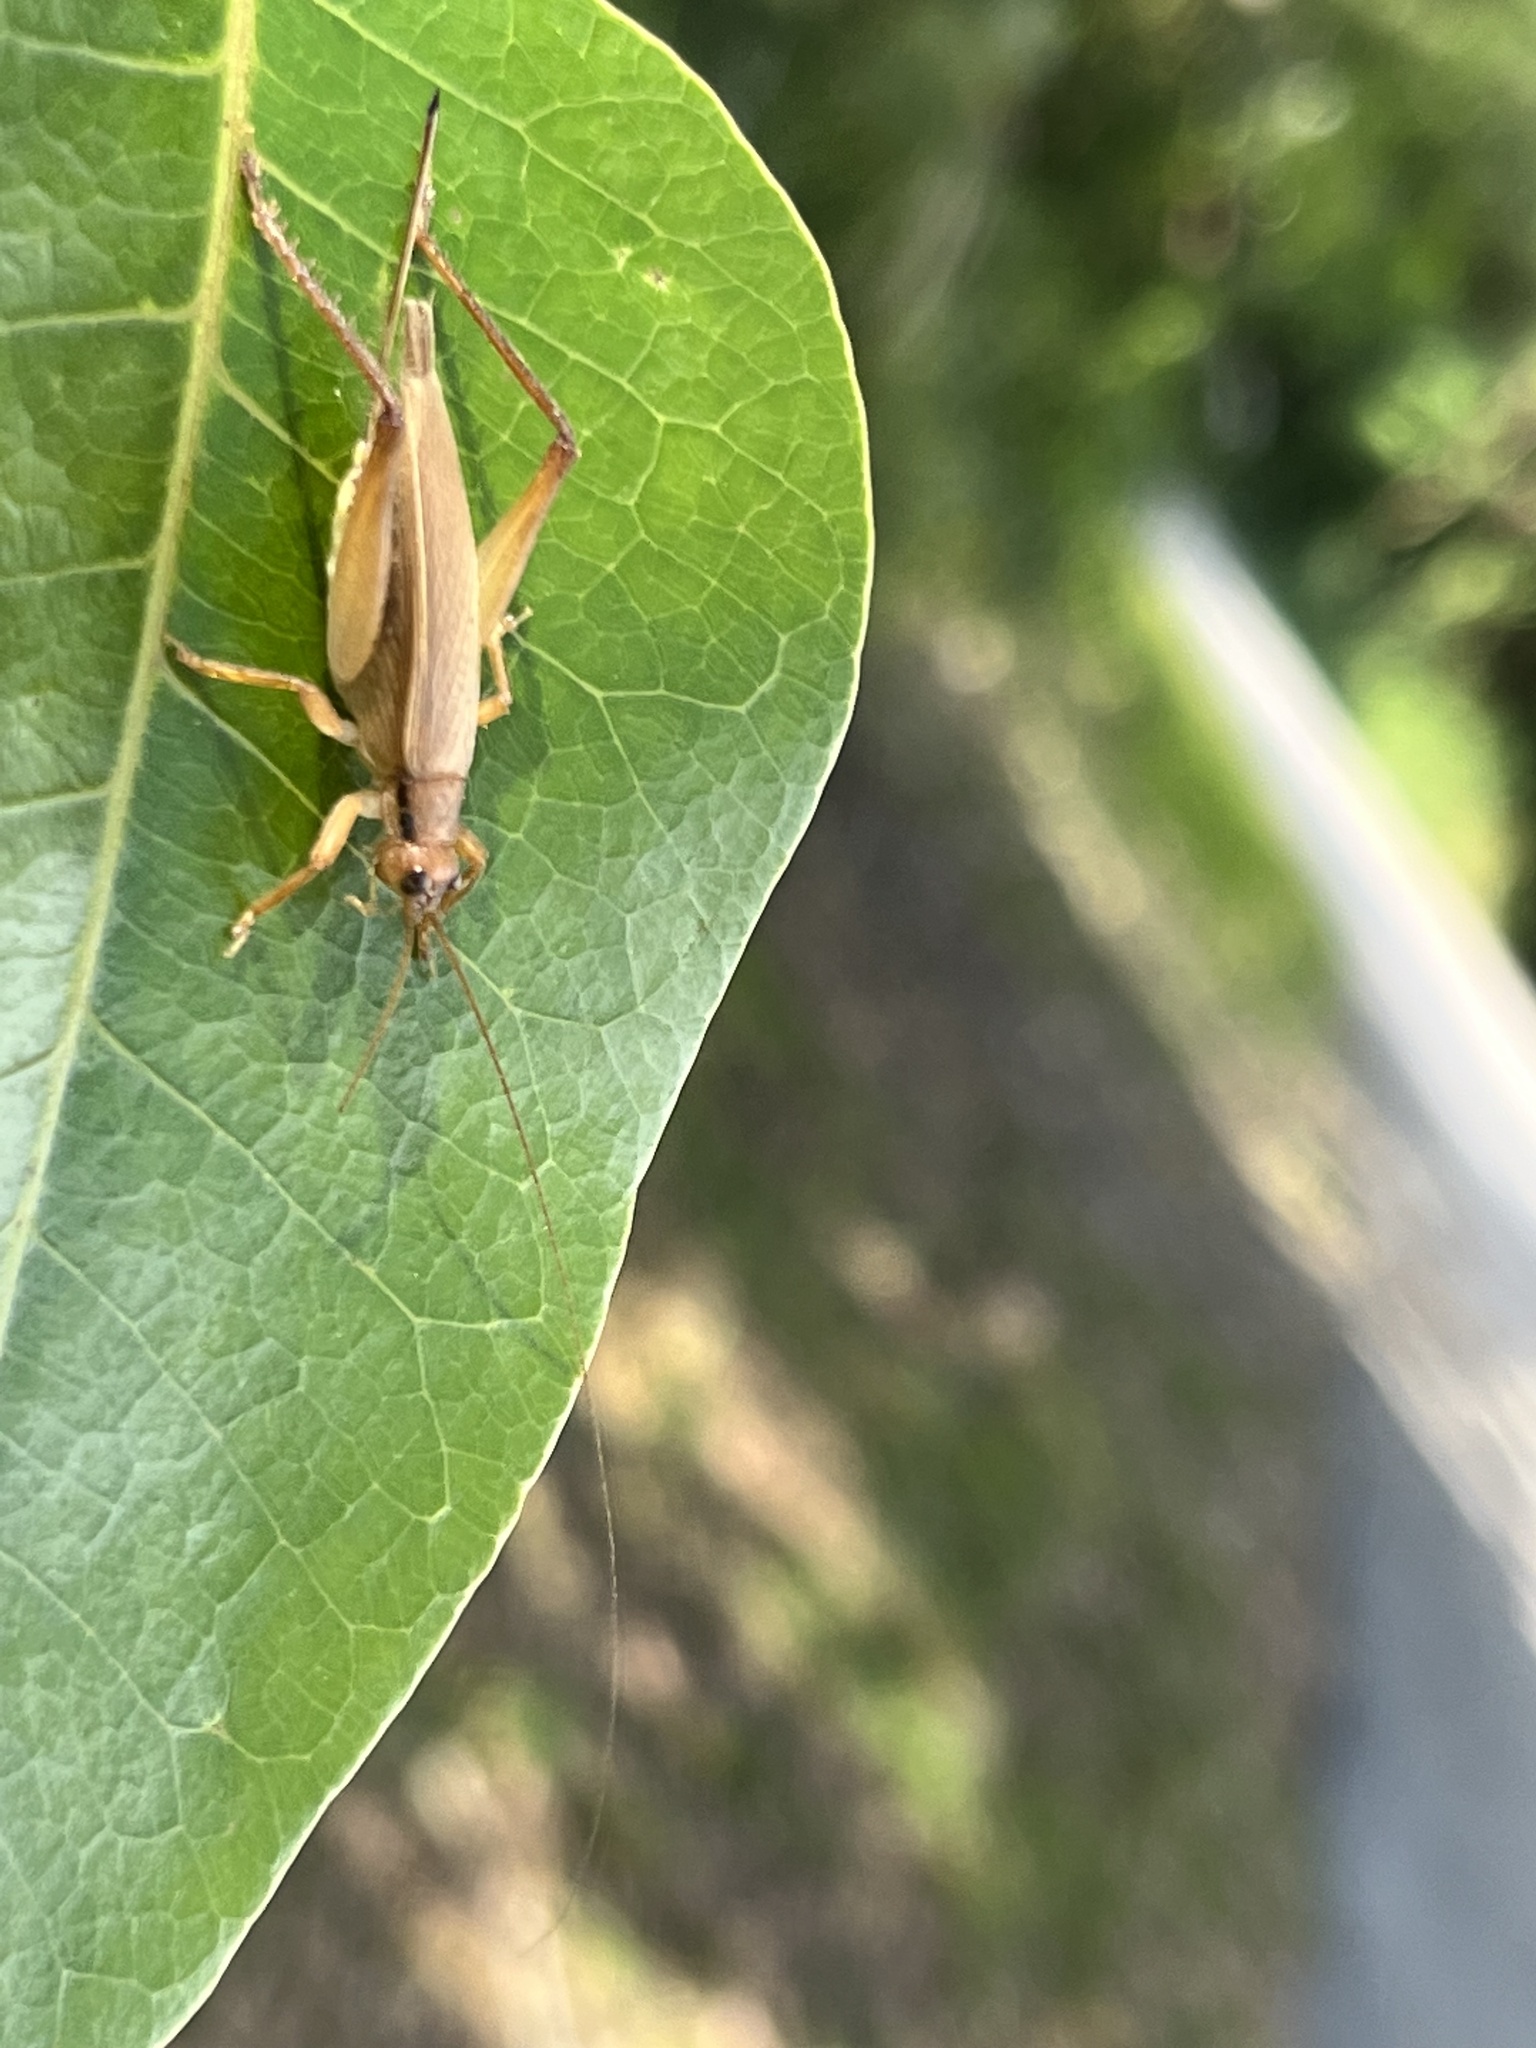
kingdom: Animalia
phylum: Arthropoda
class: Insecta
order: Orthoptera
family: Gryllidae
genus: Hapithus
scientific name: Hapithus oriobates
